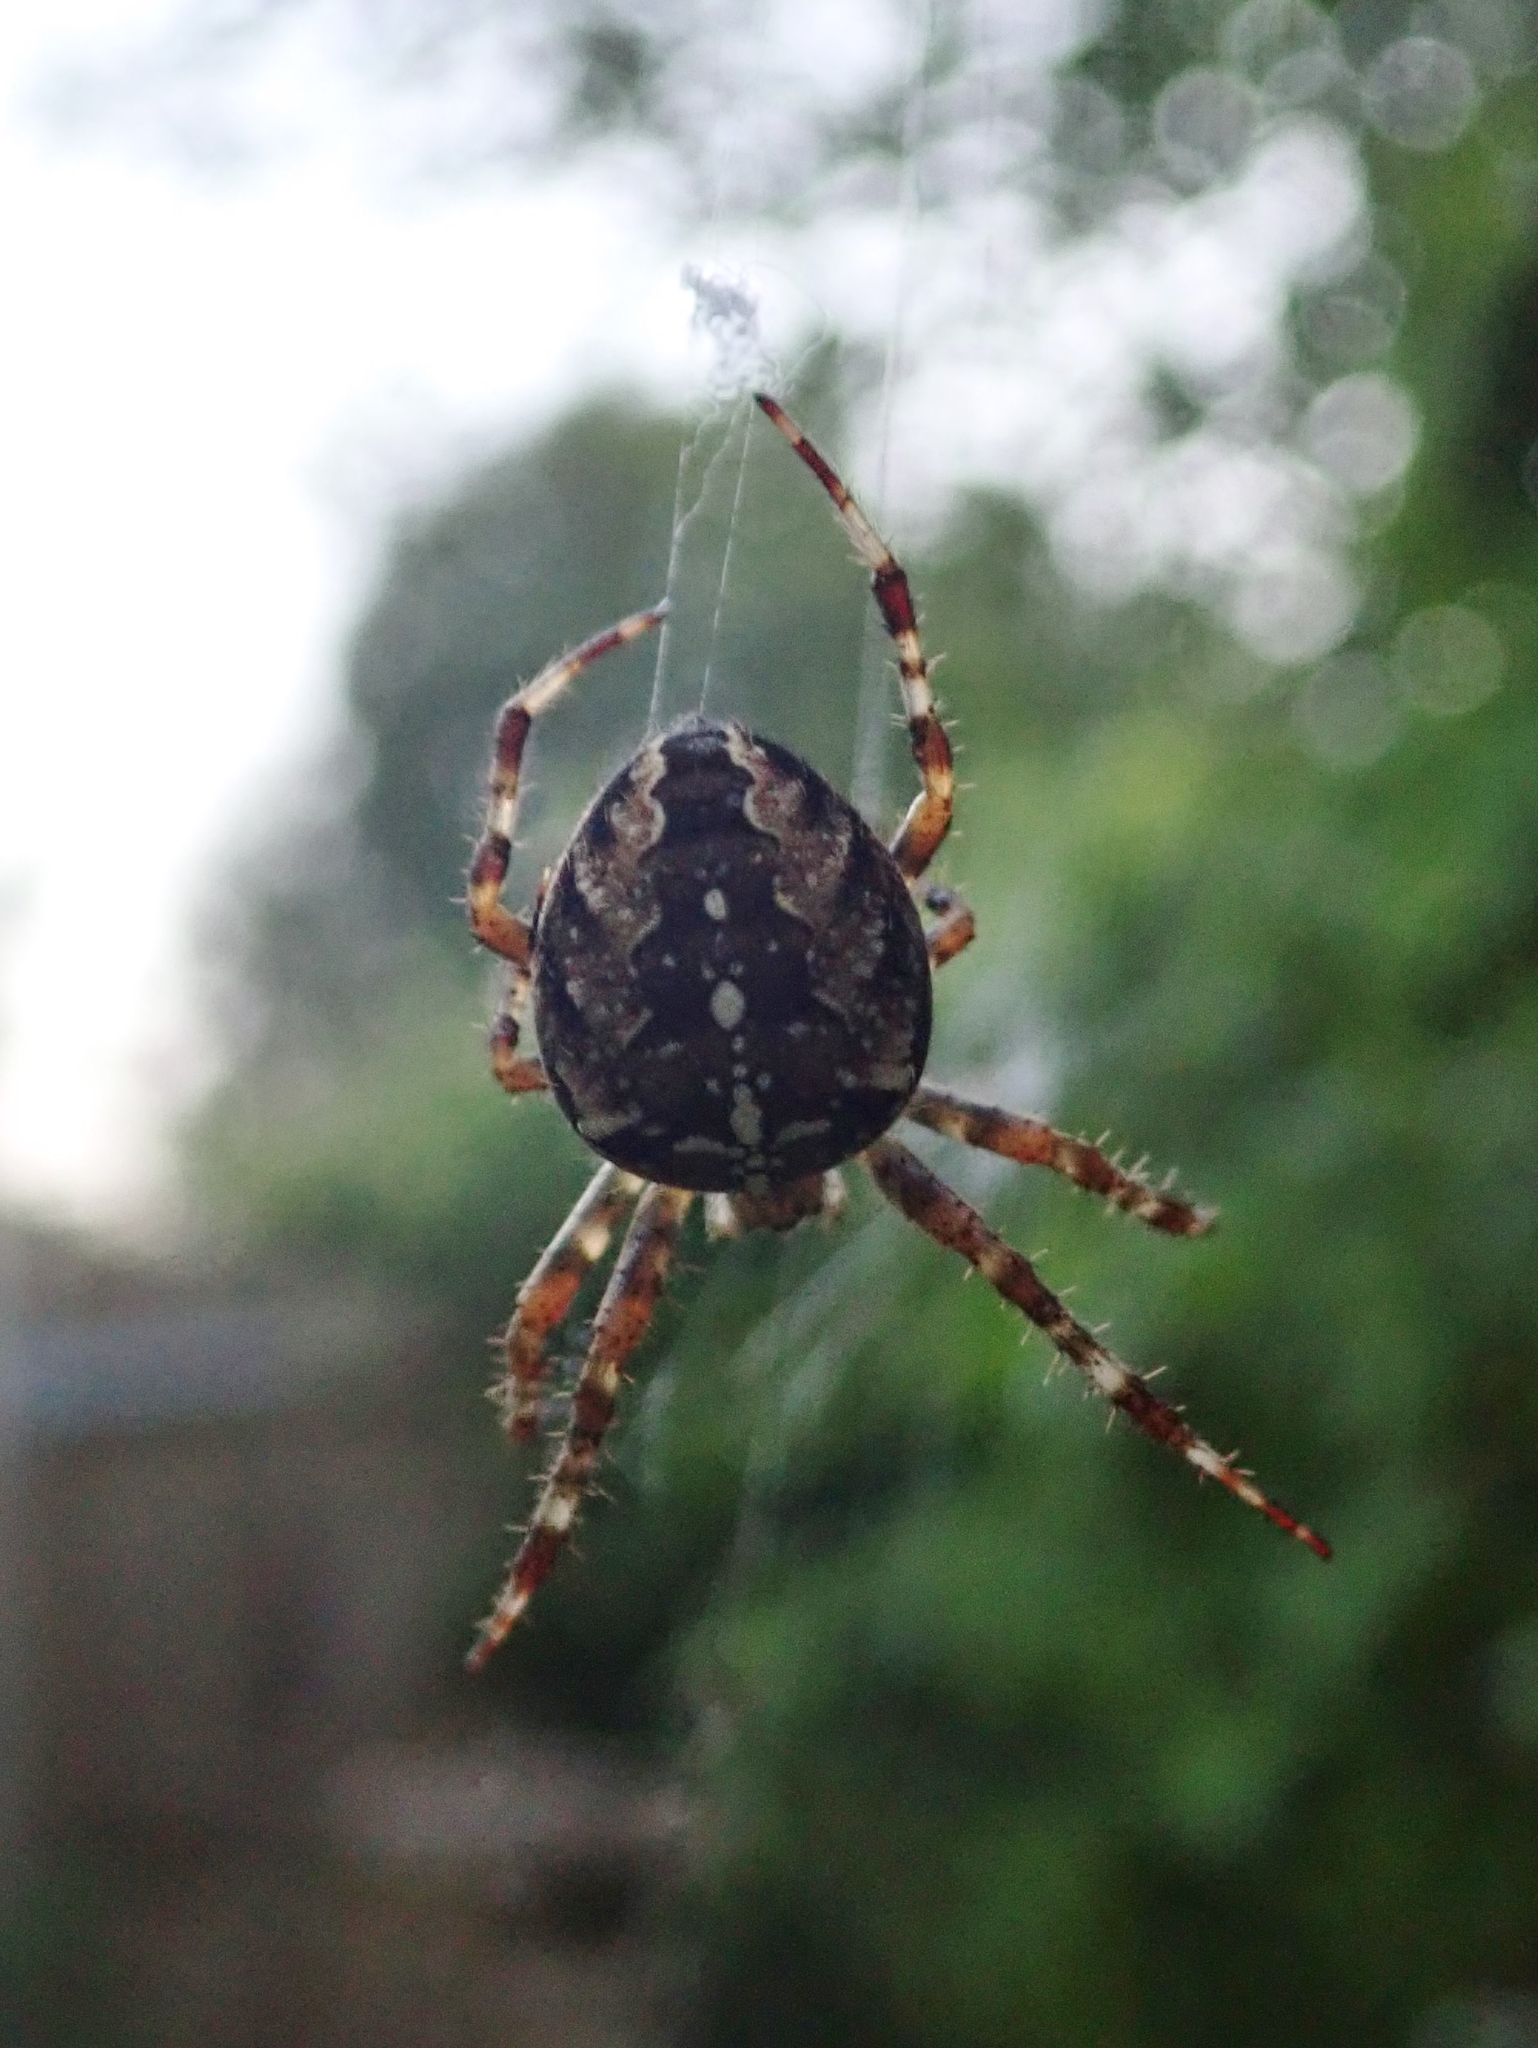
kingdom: Animalia
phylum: Arthropoda
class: Arachnida
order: Araneae
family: Araneidae
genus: Araneus
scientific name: Araneus diadematus
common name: Cross orbweaver
